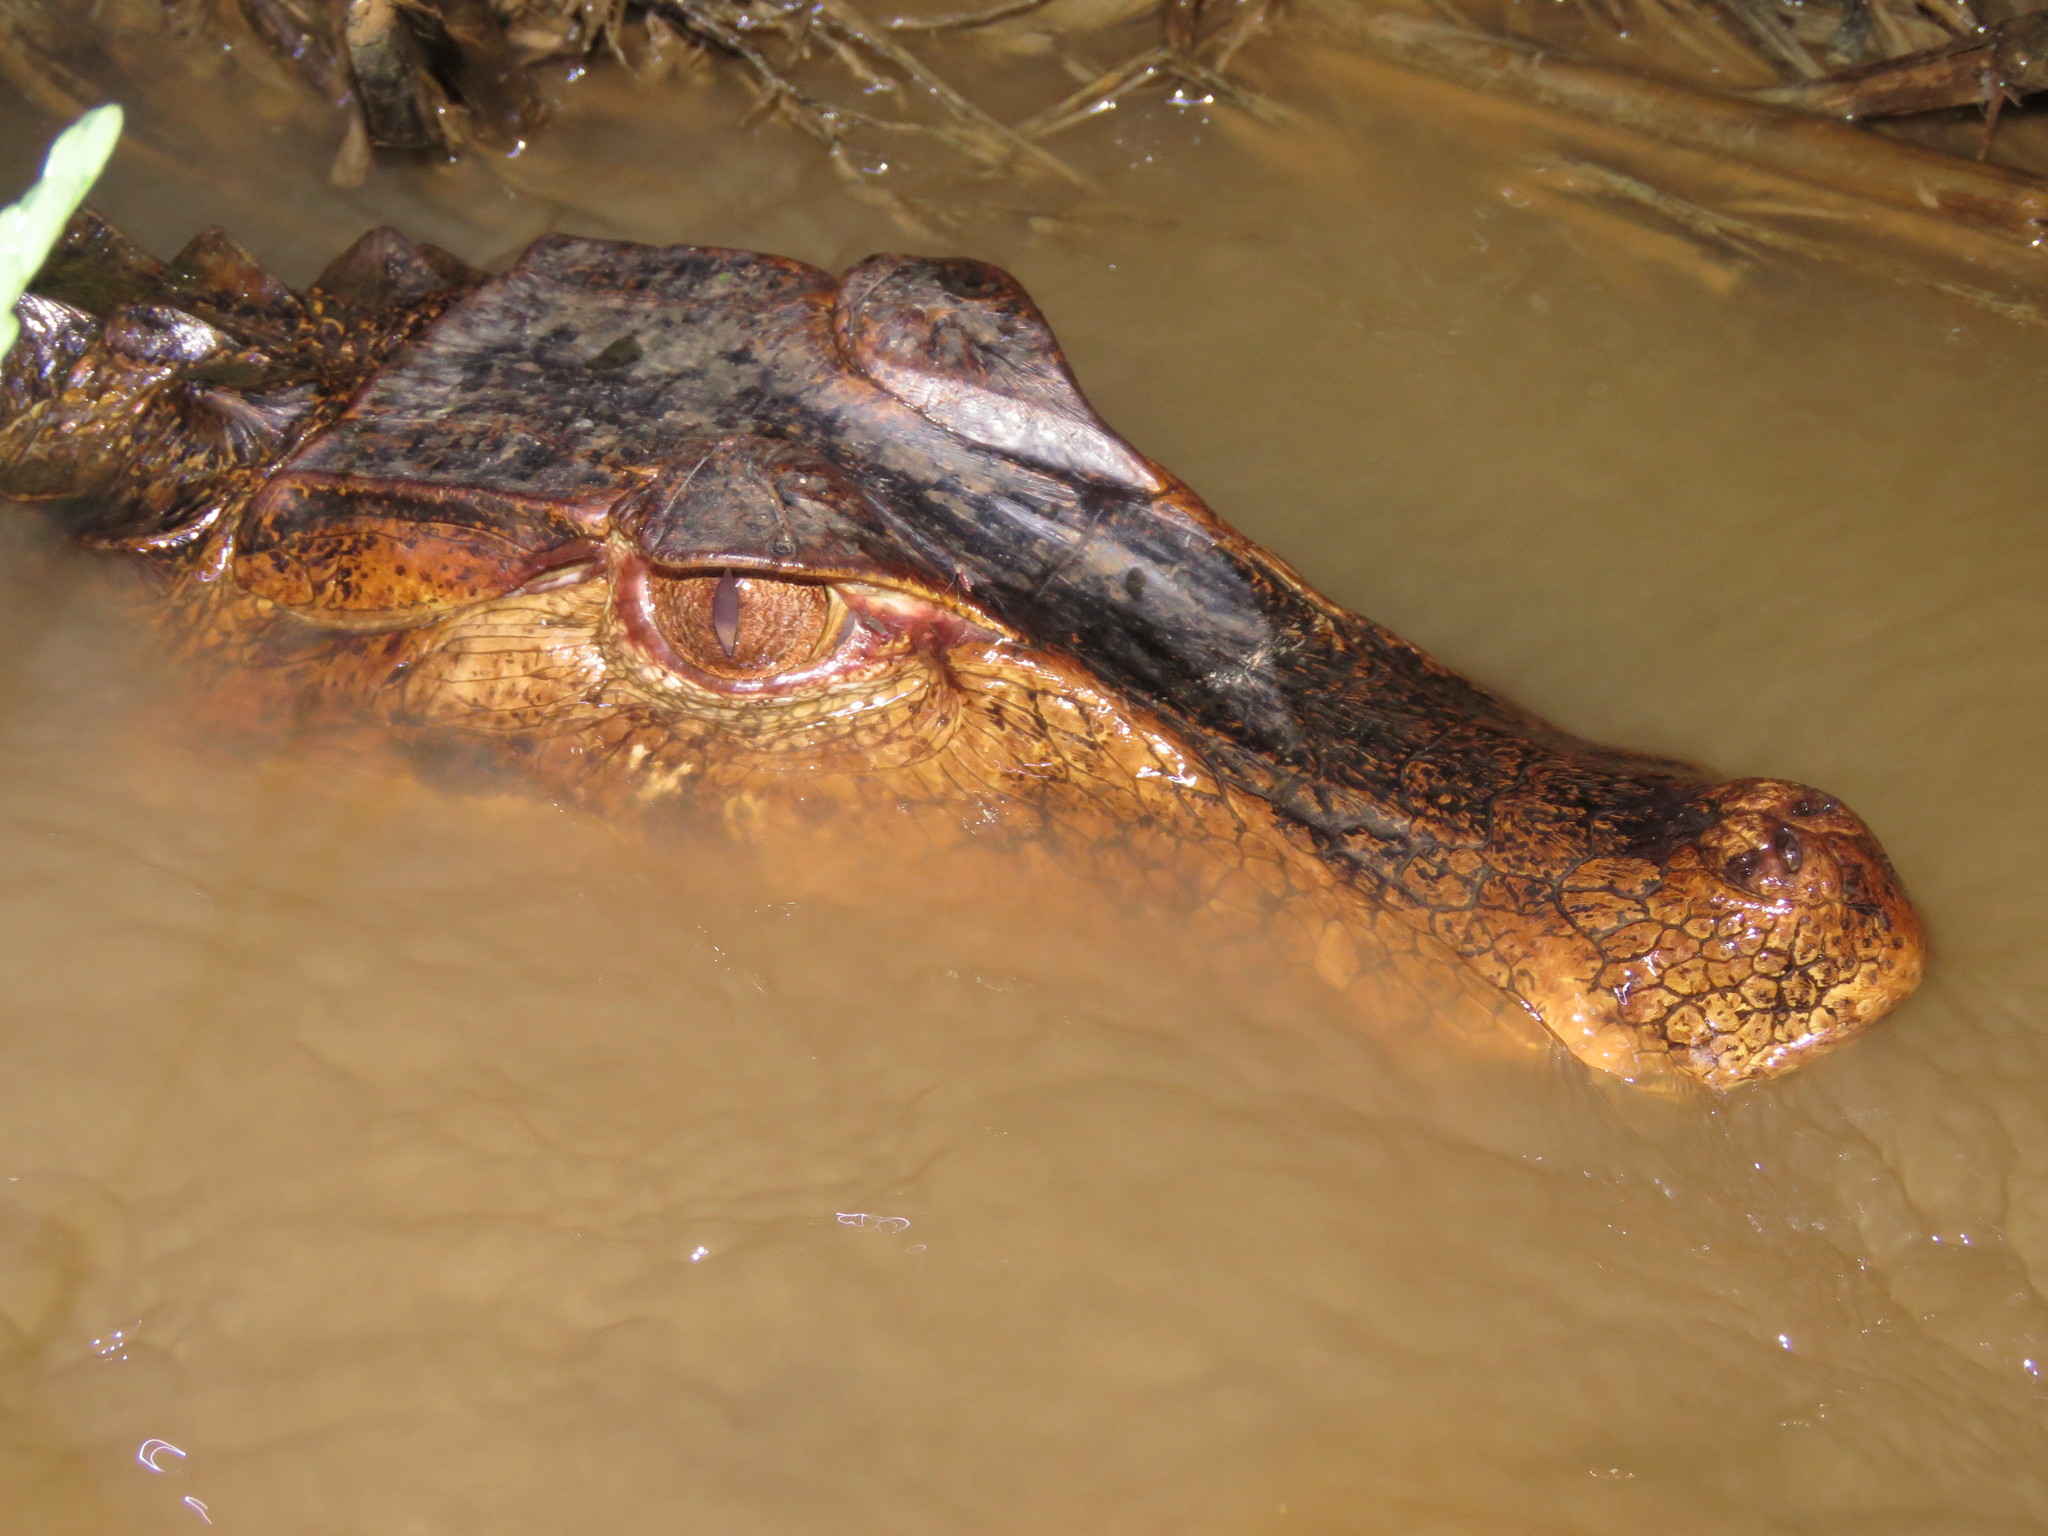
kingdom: Animalia
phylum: Chordata
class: Crocodylia
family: Alligatoridae
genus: Paleosuchus
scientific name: Paleosuchus palpebrosus
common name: Cuvier's smooth-fronted caiman
